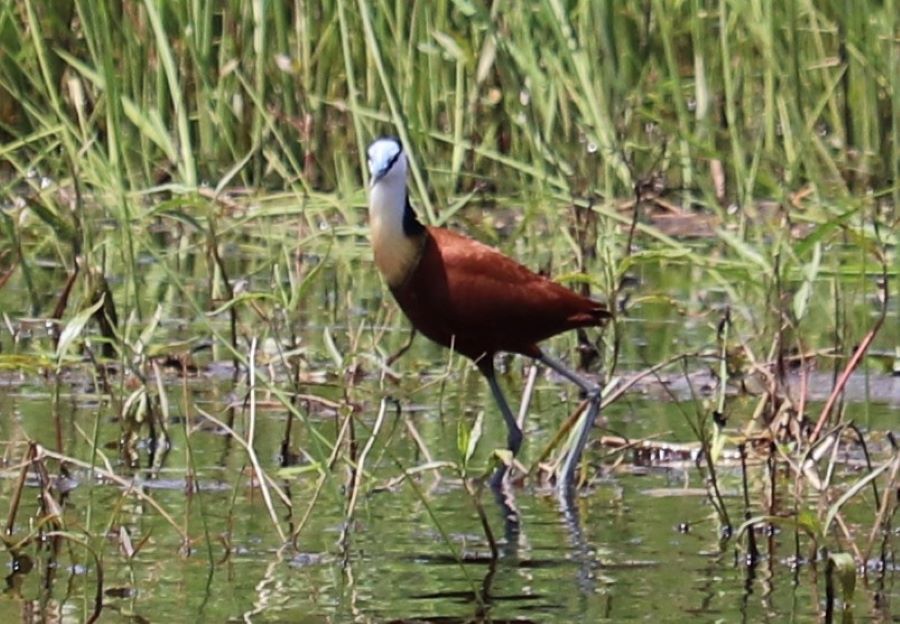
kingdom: Animalia
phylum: Chordata
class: Aves
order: Charadriiformes
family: Jacanidae
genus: Actophilornis
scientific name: Actophilornis africanus
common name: African jacana
